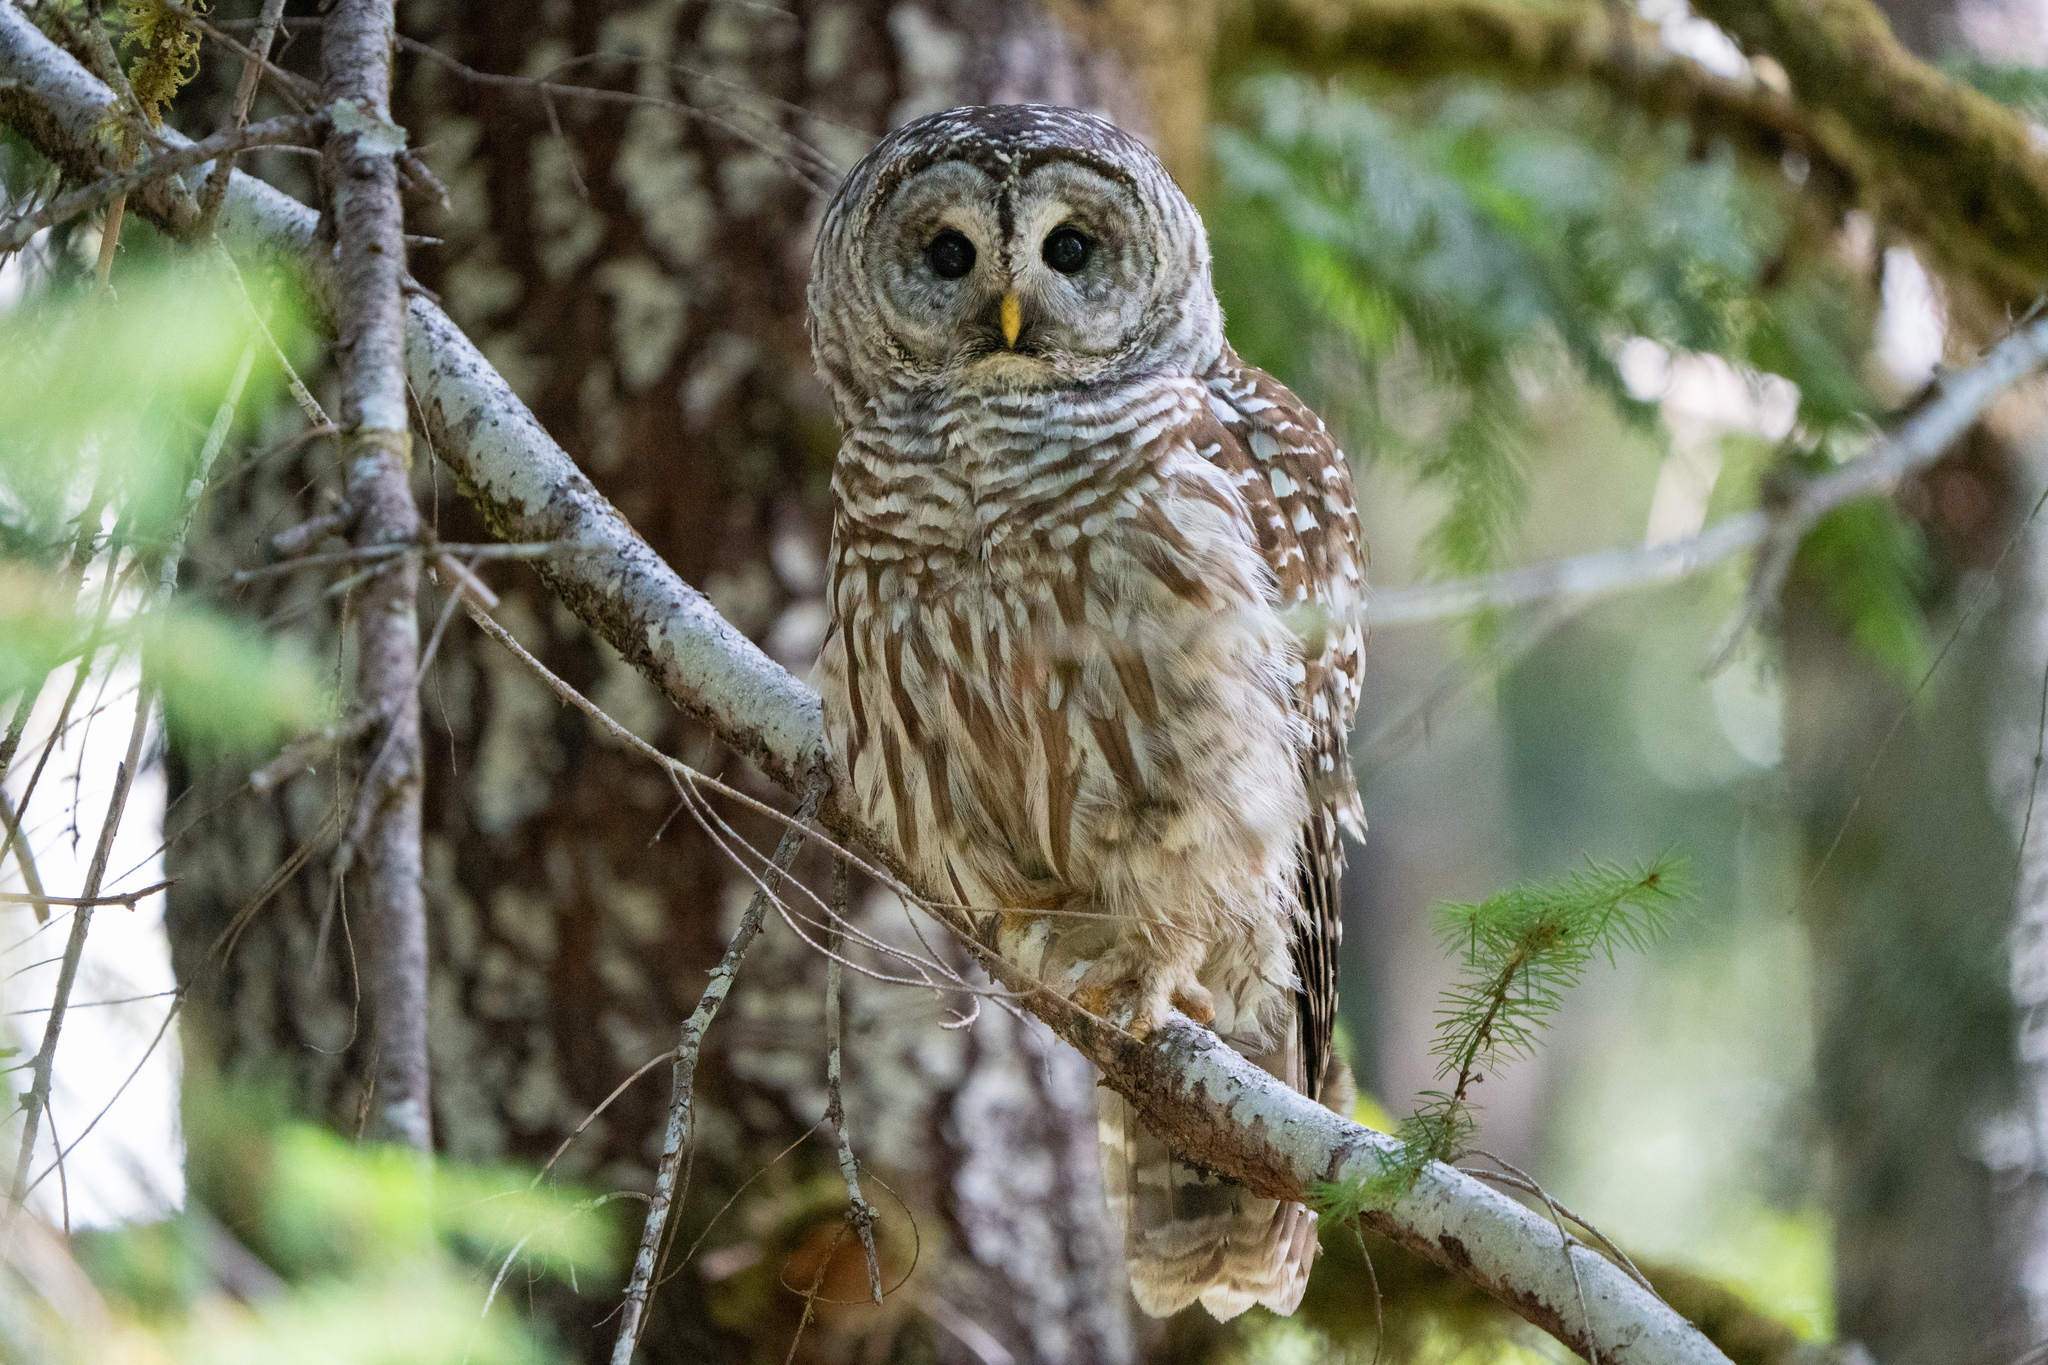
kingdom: Animalia
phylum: Chordata
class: Aves
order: Strigiformes
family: Strigidae
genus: Strix
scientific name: Strix varia
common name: Barred owl
